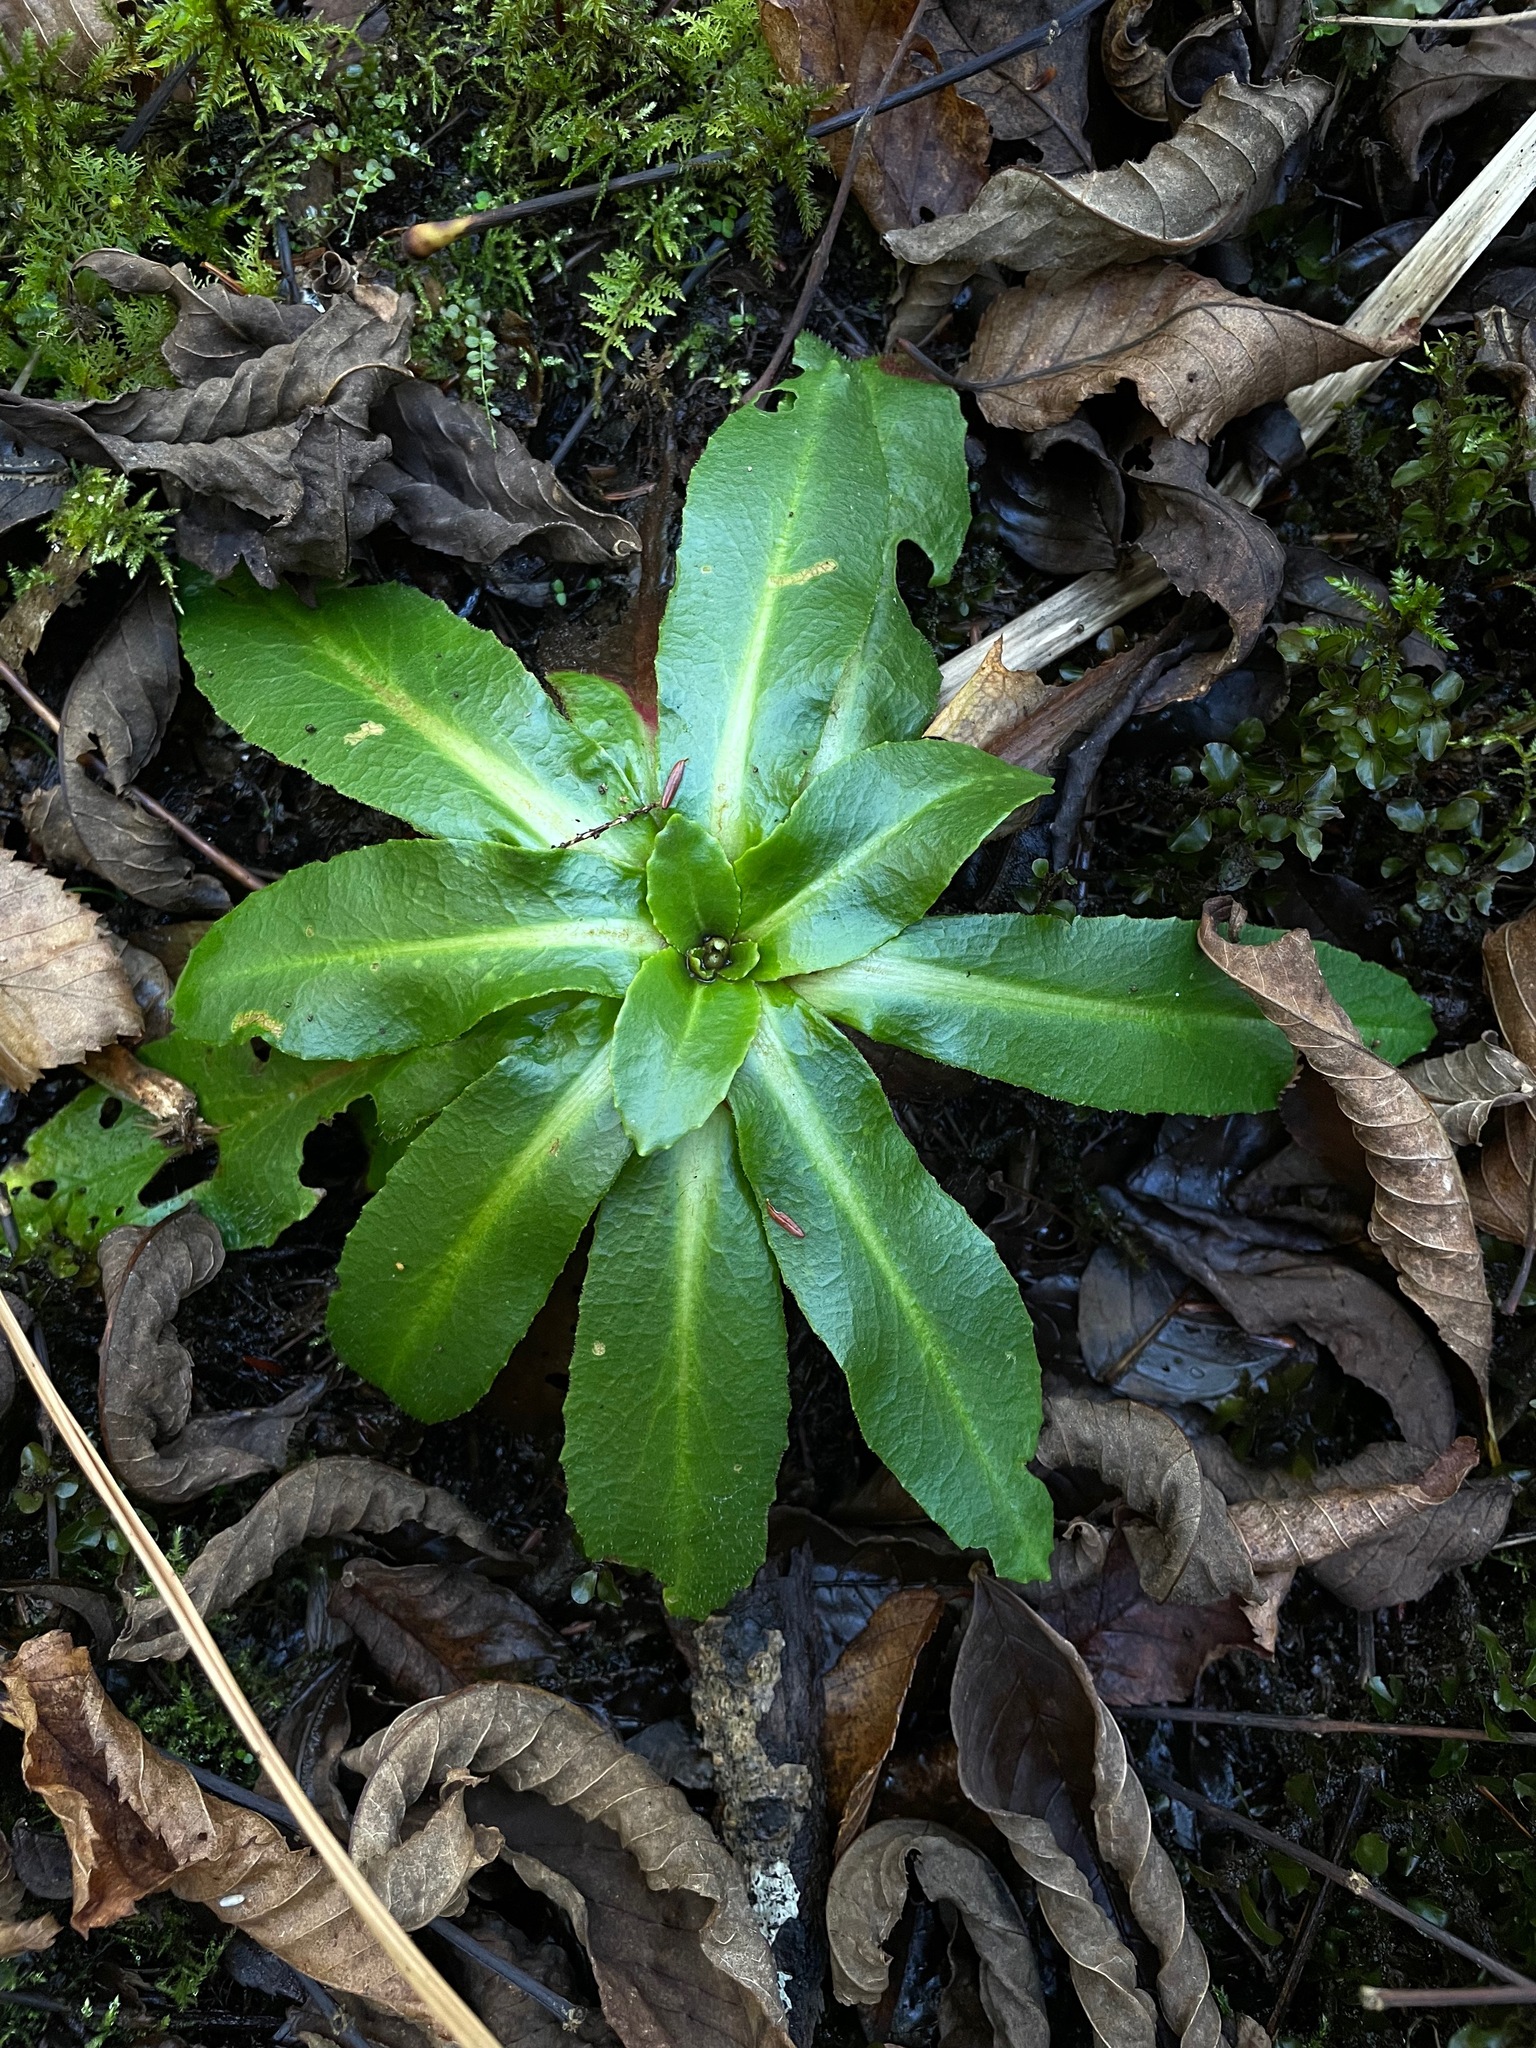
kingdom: Plantae
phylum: Tracheophyta
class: Magnoliopsida
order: Saxifragales
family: Saxifragaceae
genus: Micranthes
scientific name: Micranthes pensylvanica
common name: Marsh saxifrage
